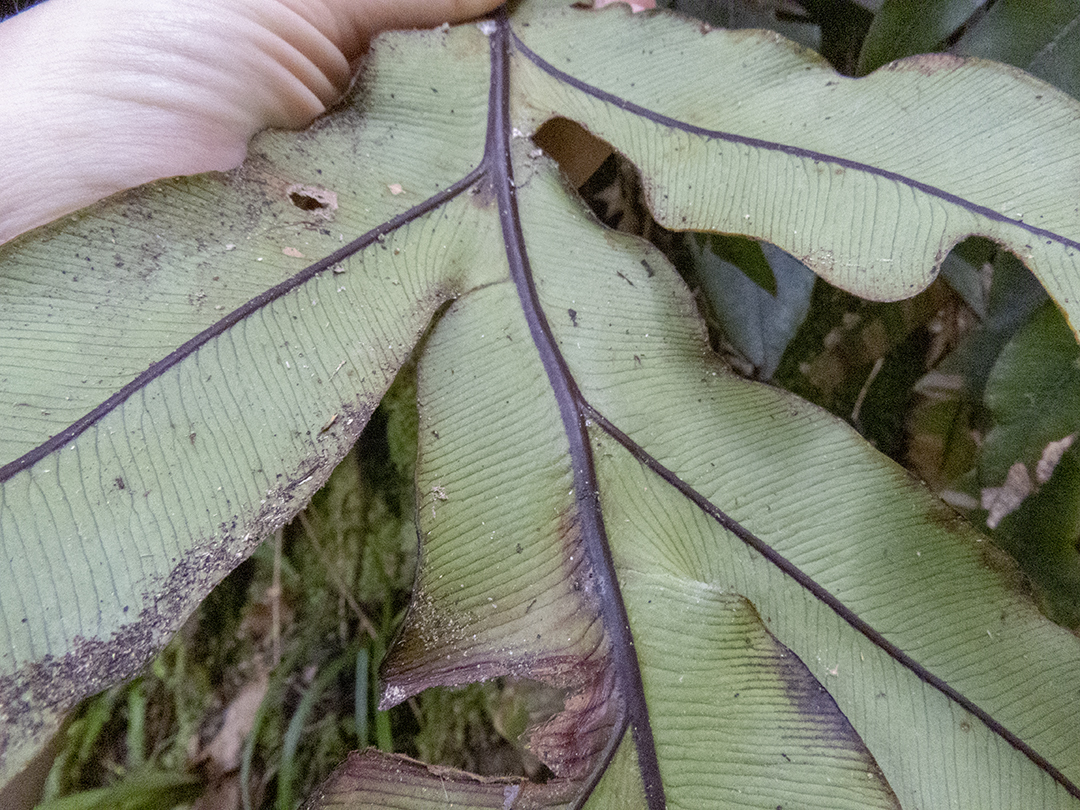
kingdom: Plantae
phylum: Tracheophyta
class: Polypodiopsida
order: Polypodiales
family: Blechnaceae
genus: Austroblechnum
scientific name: Austroblechnum colensoi
